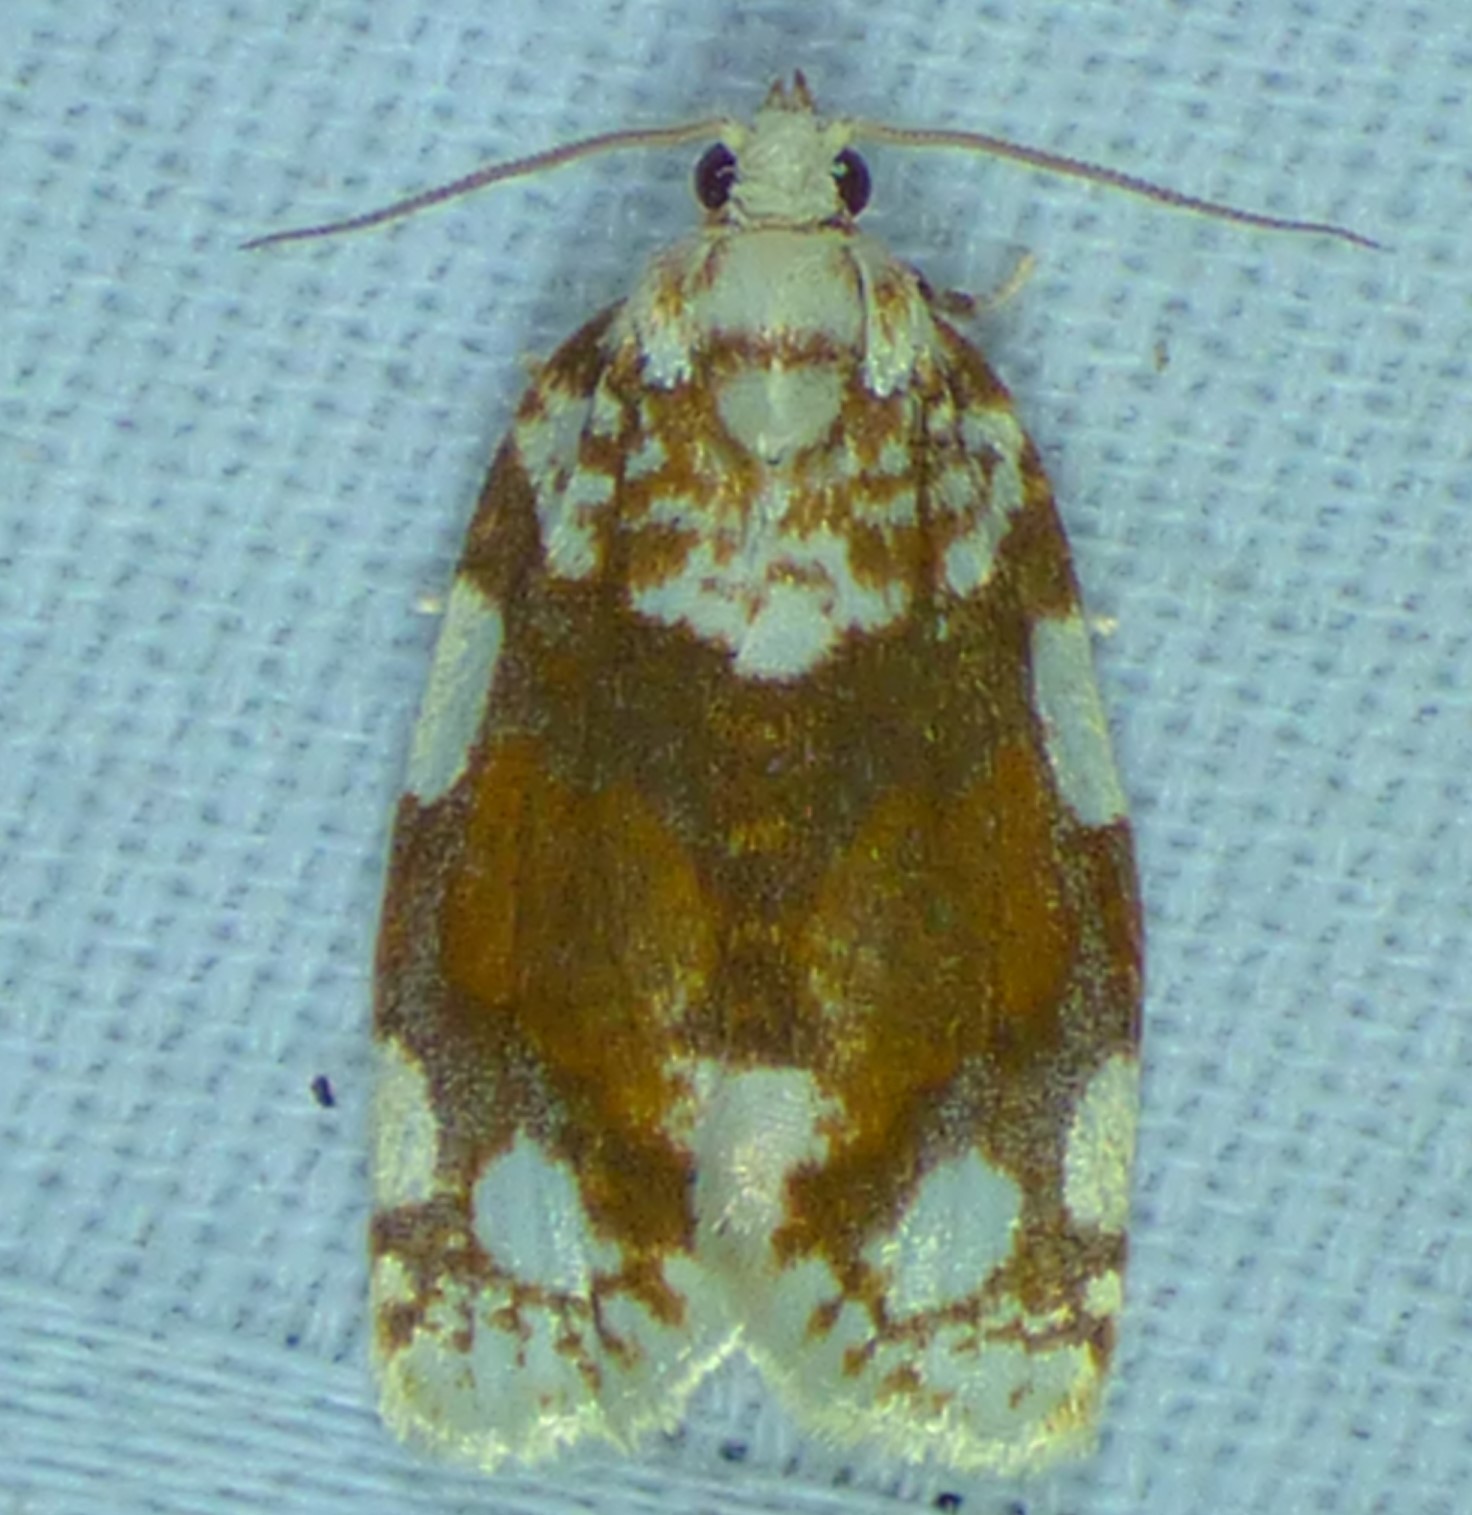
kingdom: Animalia
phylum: Arthropoda
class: Insecta
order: Lepidoptera
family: Tortricidae
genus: Argyrotaenia
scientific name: Argyrotaenia alisellana
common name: White-spotted leafroller moth
